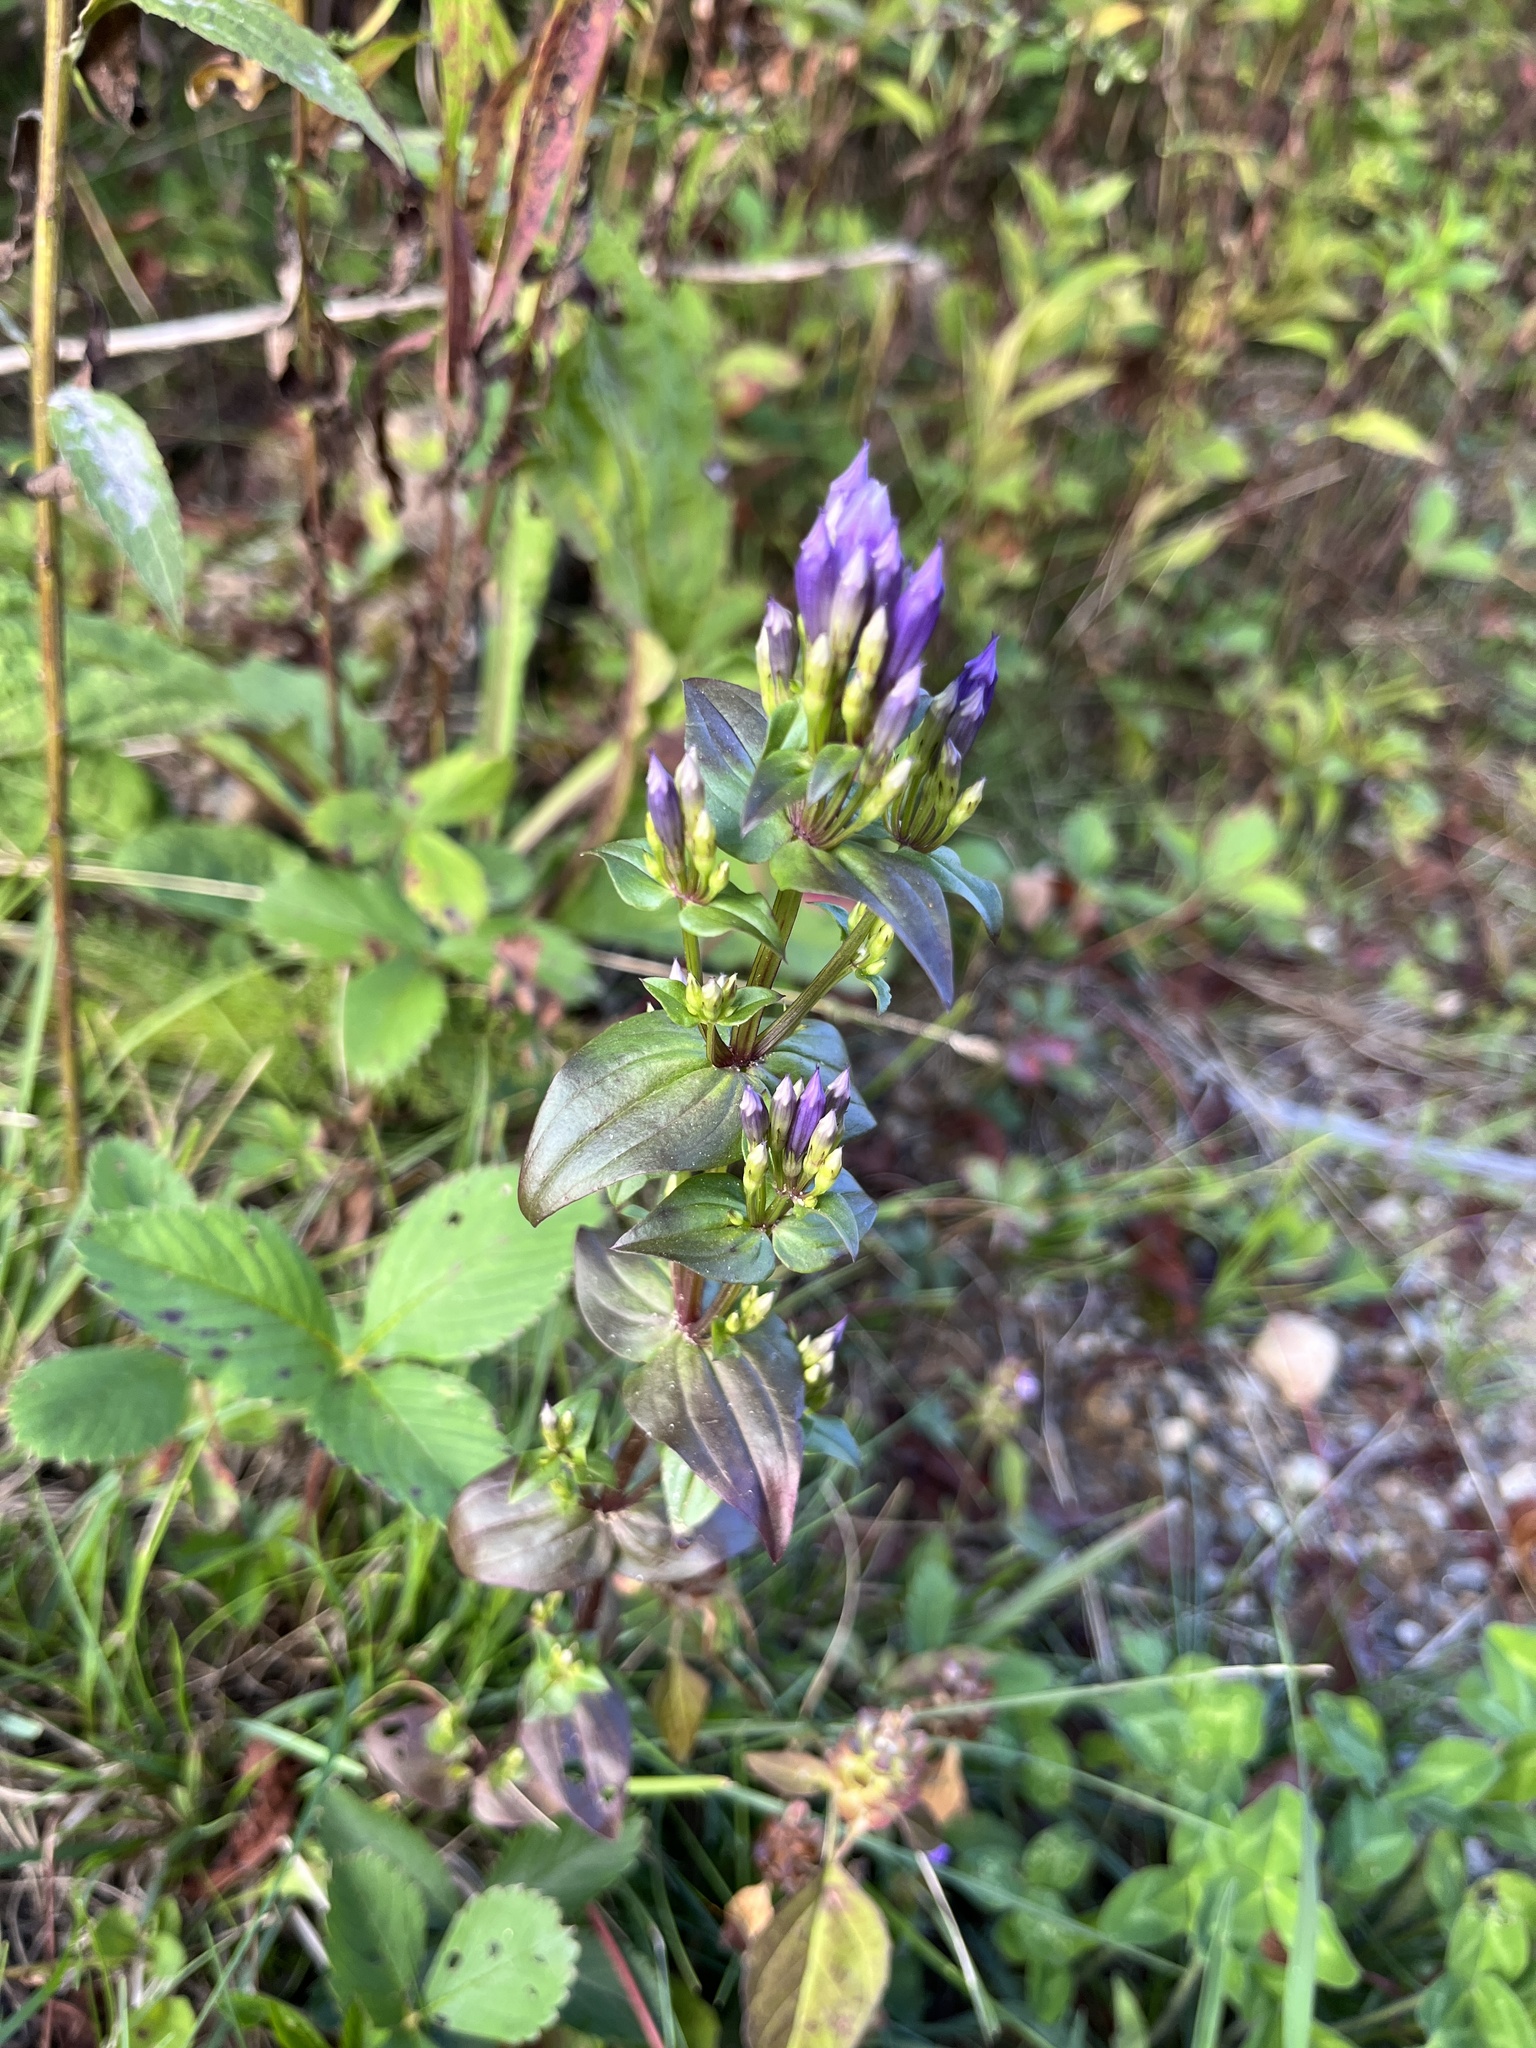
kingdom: Plantae
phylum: Tracheophyta
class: Magnoliopsida
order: Gentianales
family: Gentianaceae
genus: Gentianella
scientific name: Gentianella quinquefolia
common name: Agueweed
